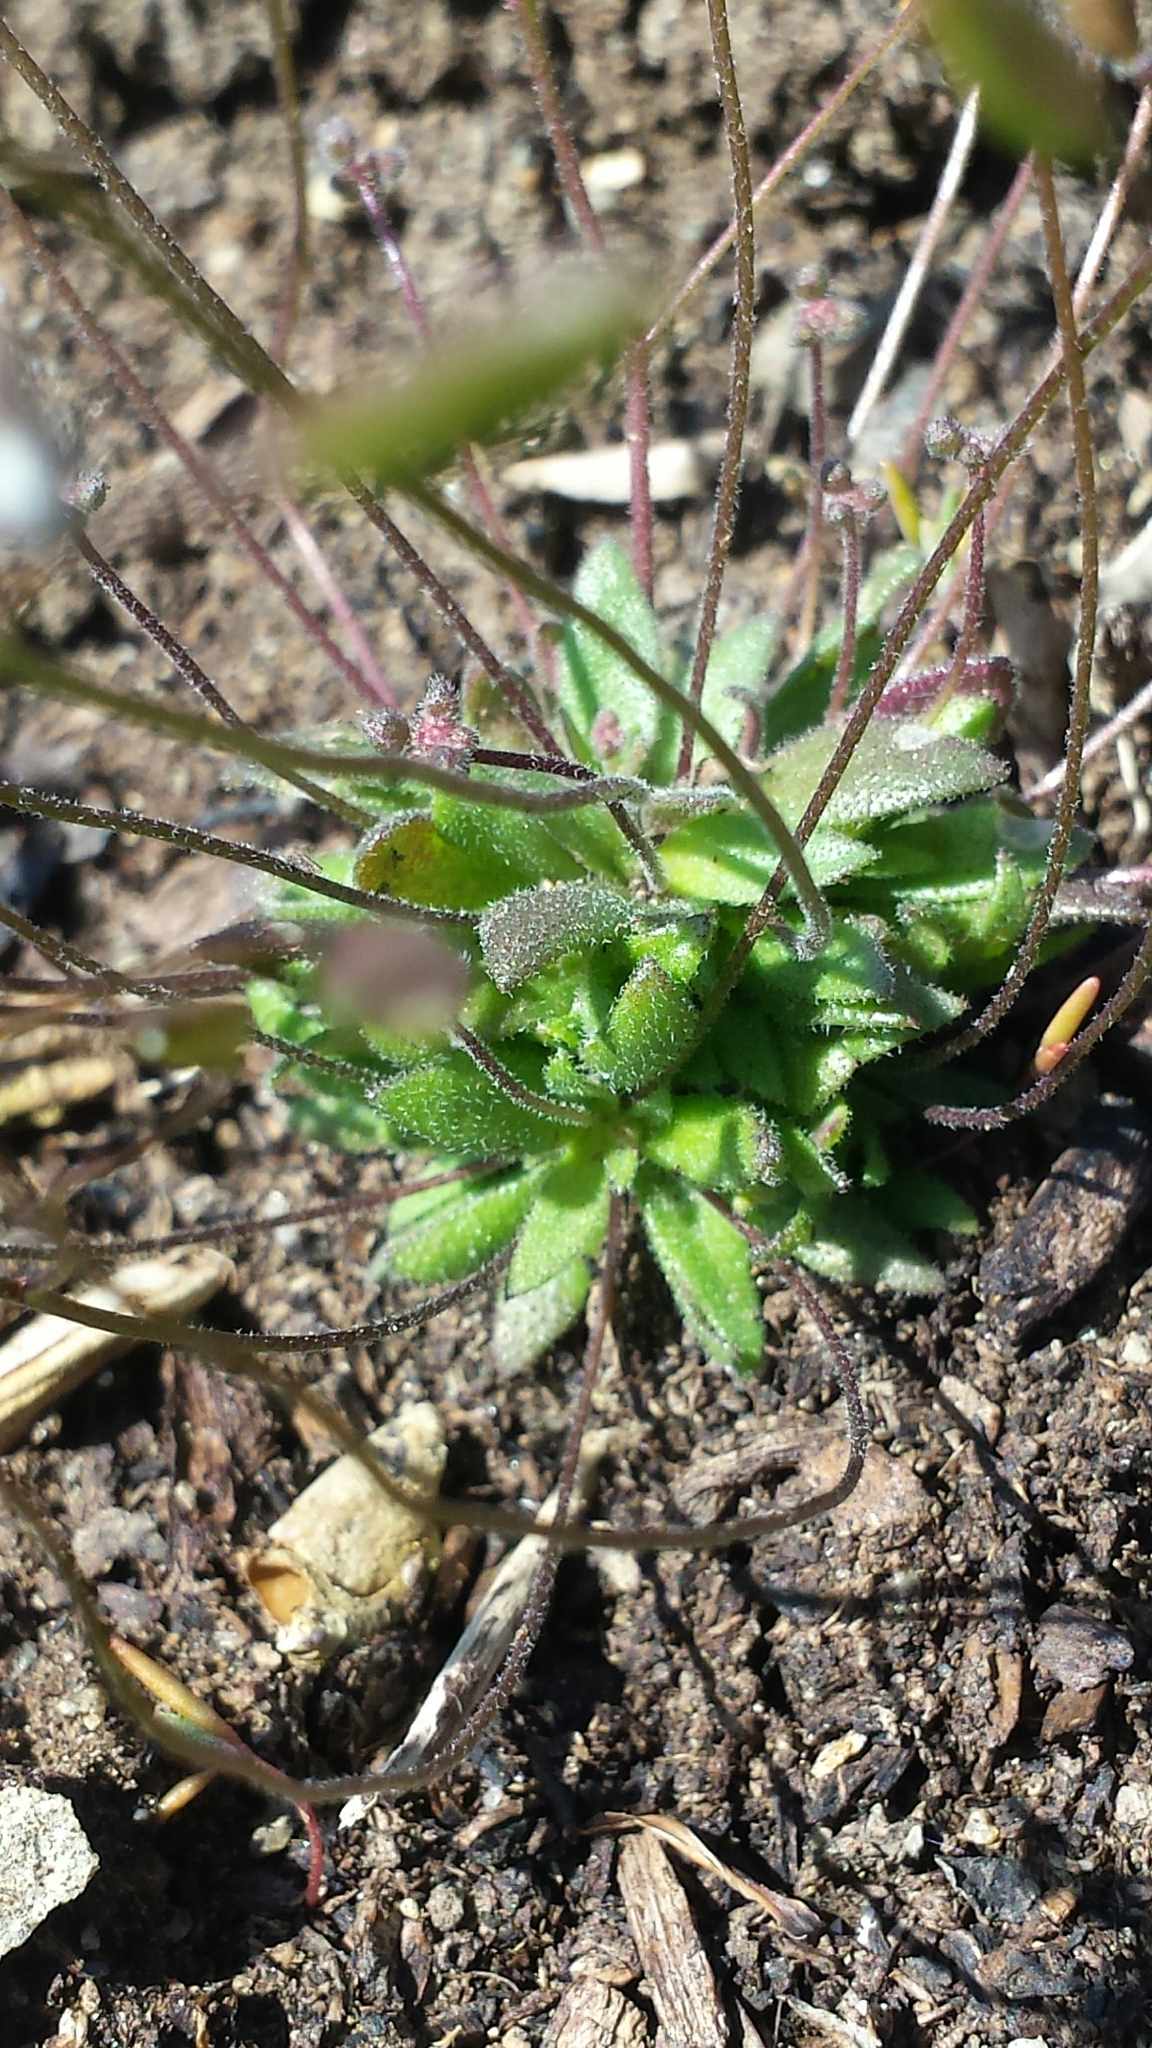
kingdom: Plantae
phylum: Tracheophyta
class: Magnoliopsida
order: Brassicales
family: Brassicaceae
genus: Draba
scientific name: Draba verna
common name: Spring draba
